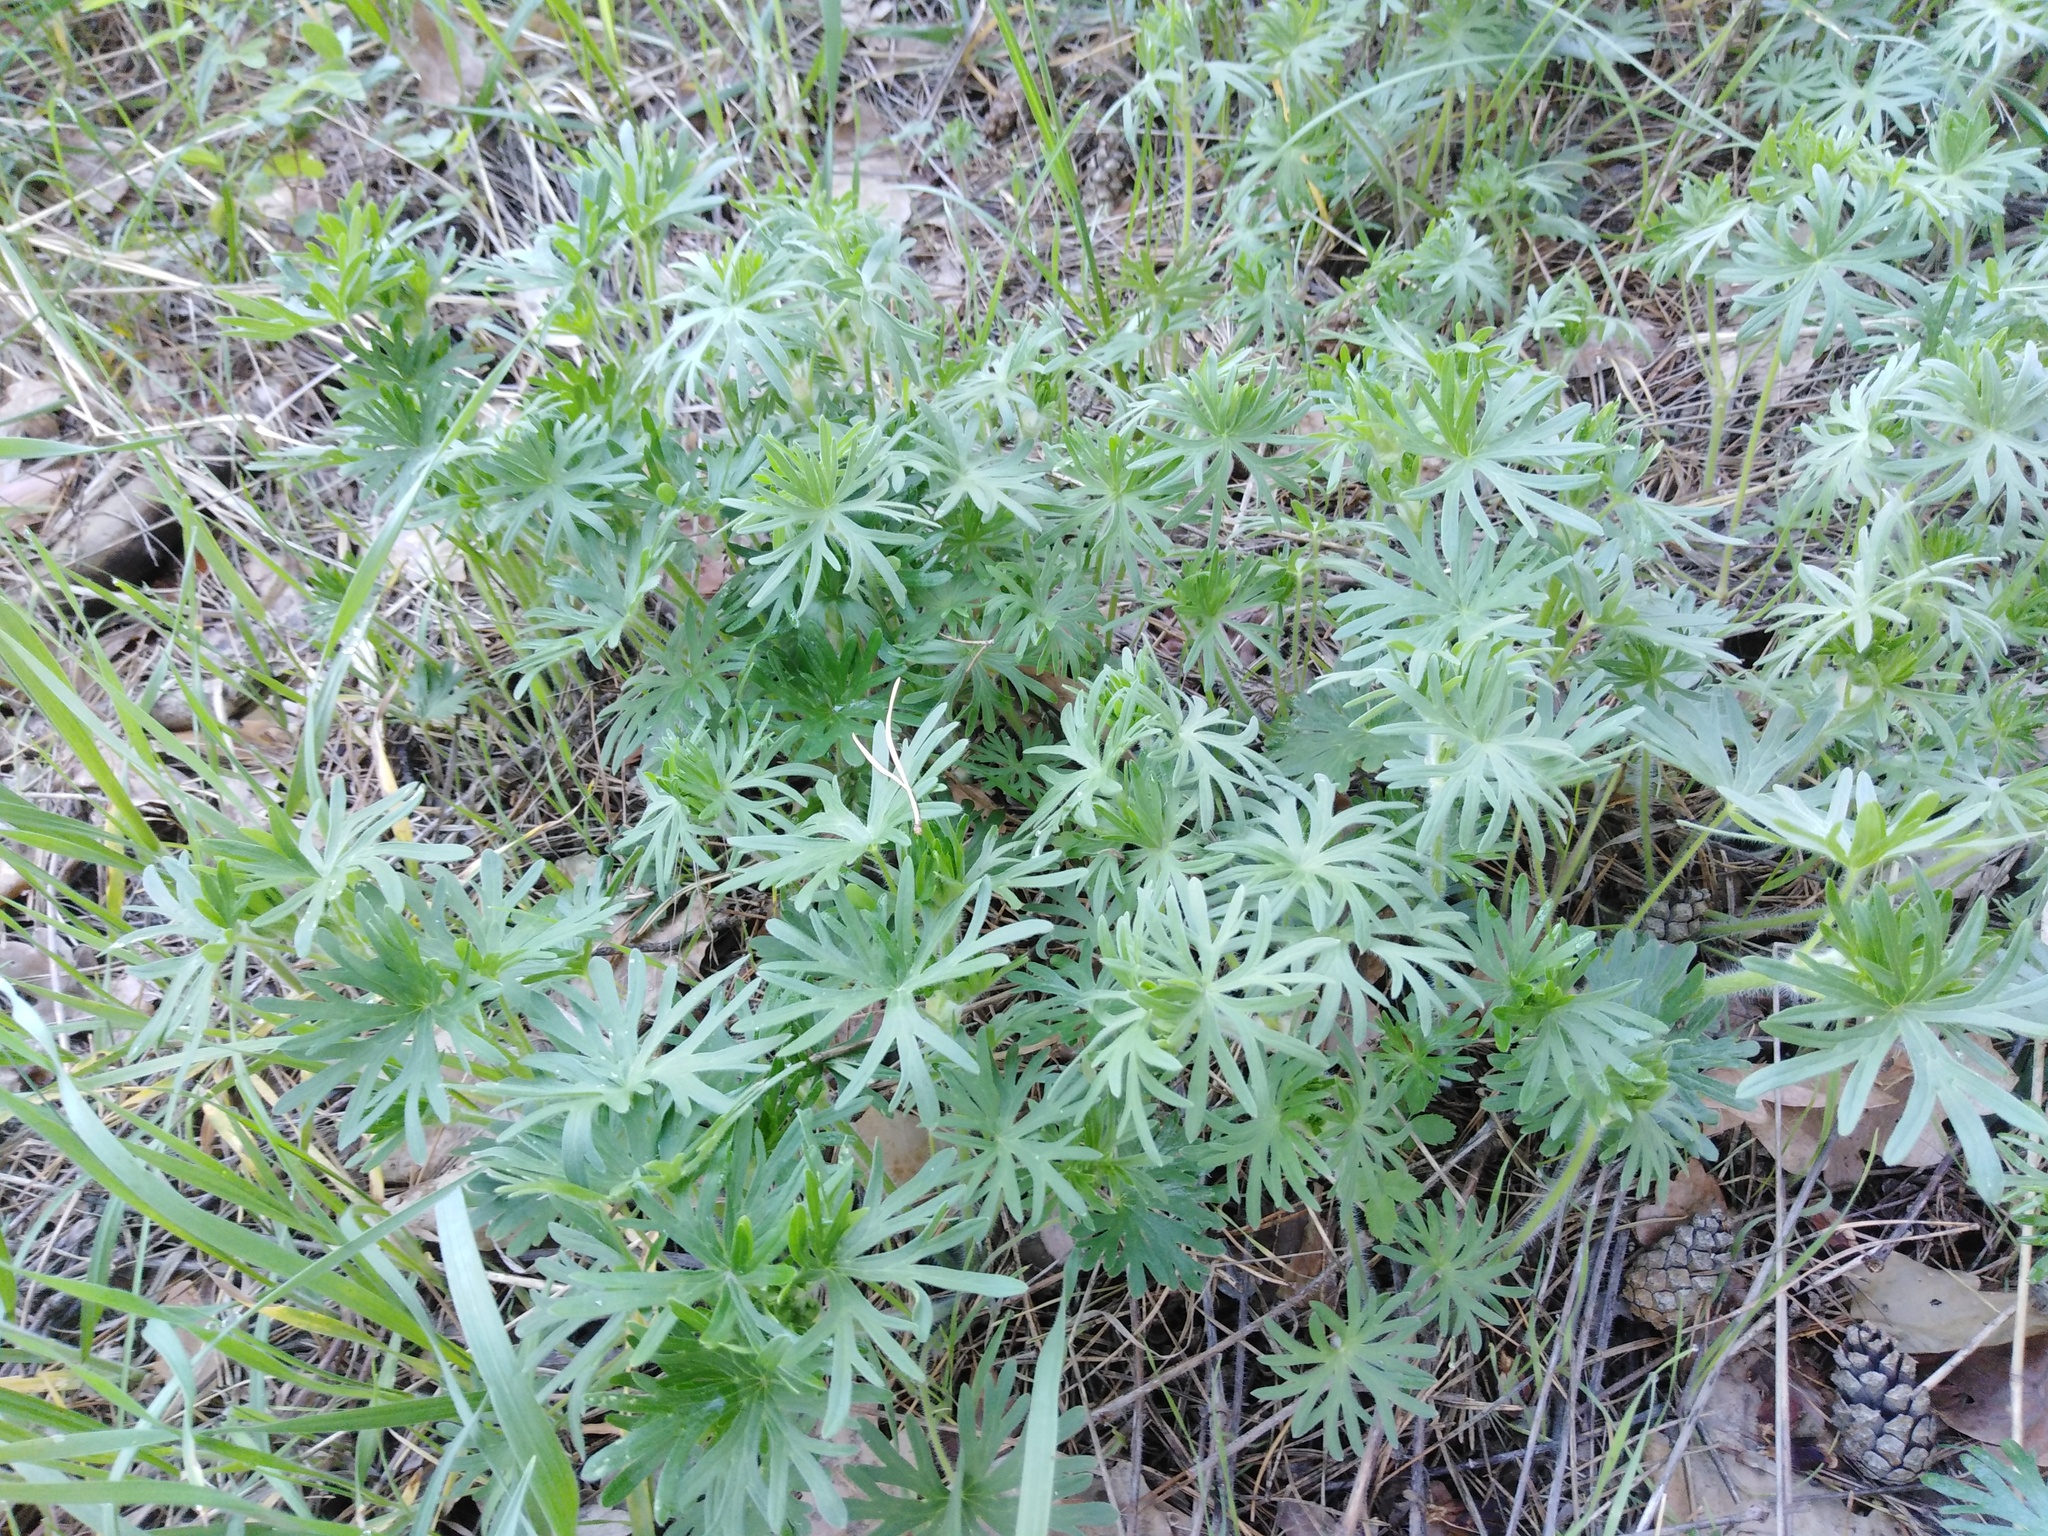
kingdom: Plantae
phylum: Tracheophyta
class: Magnoliopsida
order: Geraniales
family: Geraniaceae
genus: Geranium
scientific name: Geranium sanguineum
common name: Bloody crane's-bill
